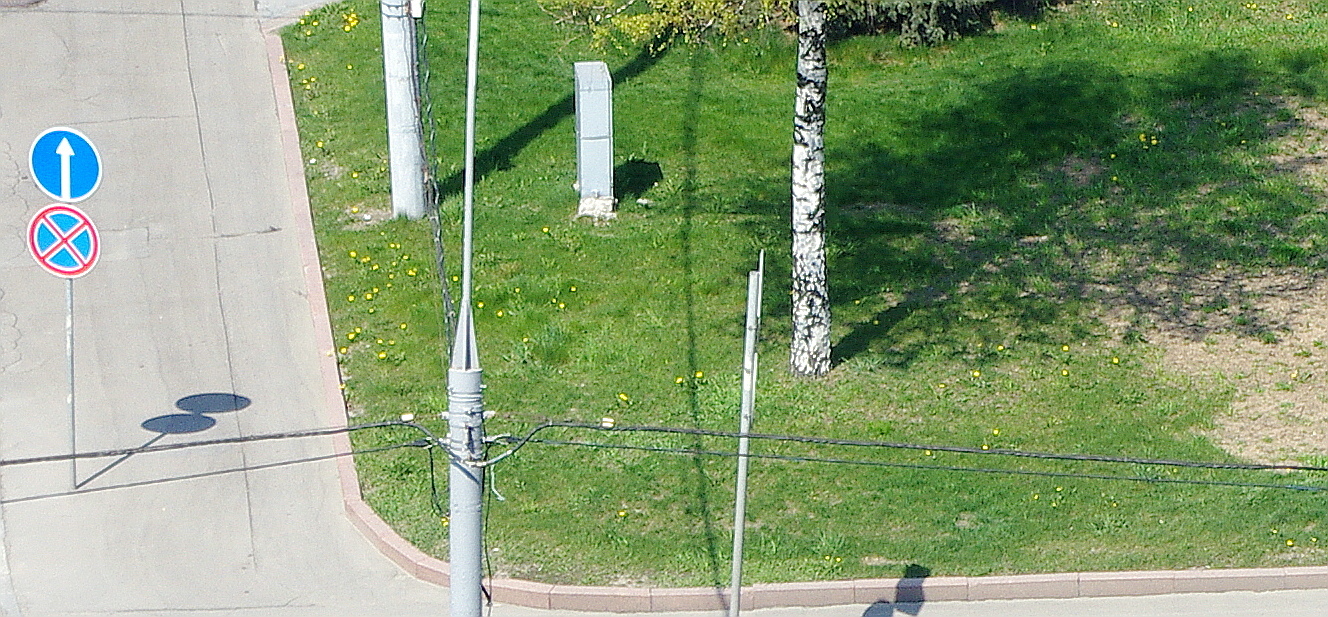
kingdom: Plantae
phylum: Tracheophyta
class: Magnoliopsida
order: Asterales
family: Asteraceae
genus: Taraxacum
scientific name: Taraxacum officinale
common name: Common dandelion
